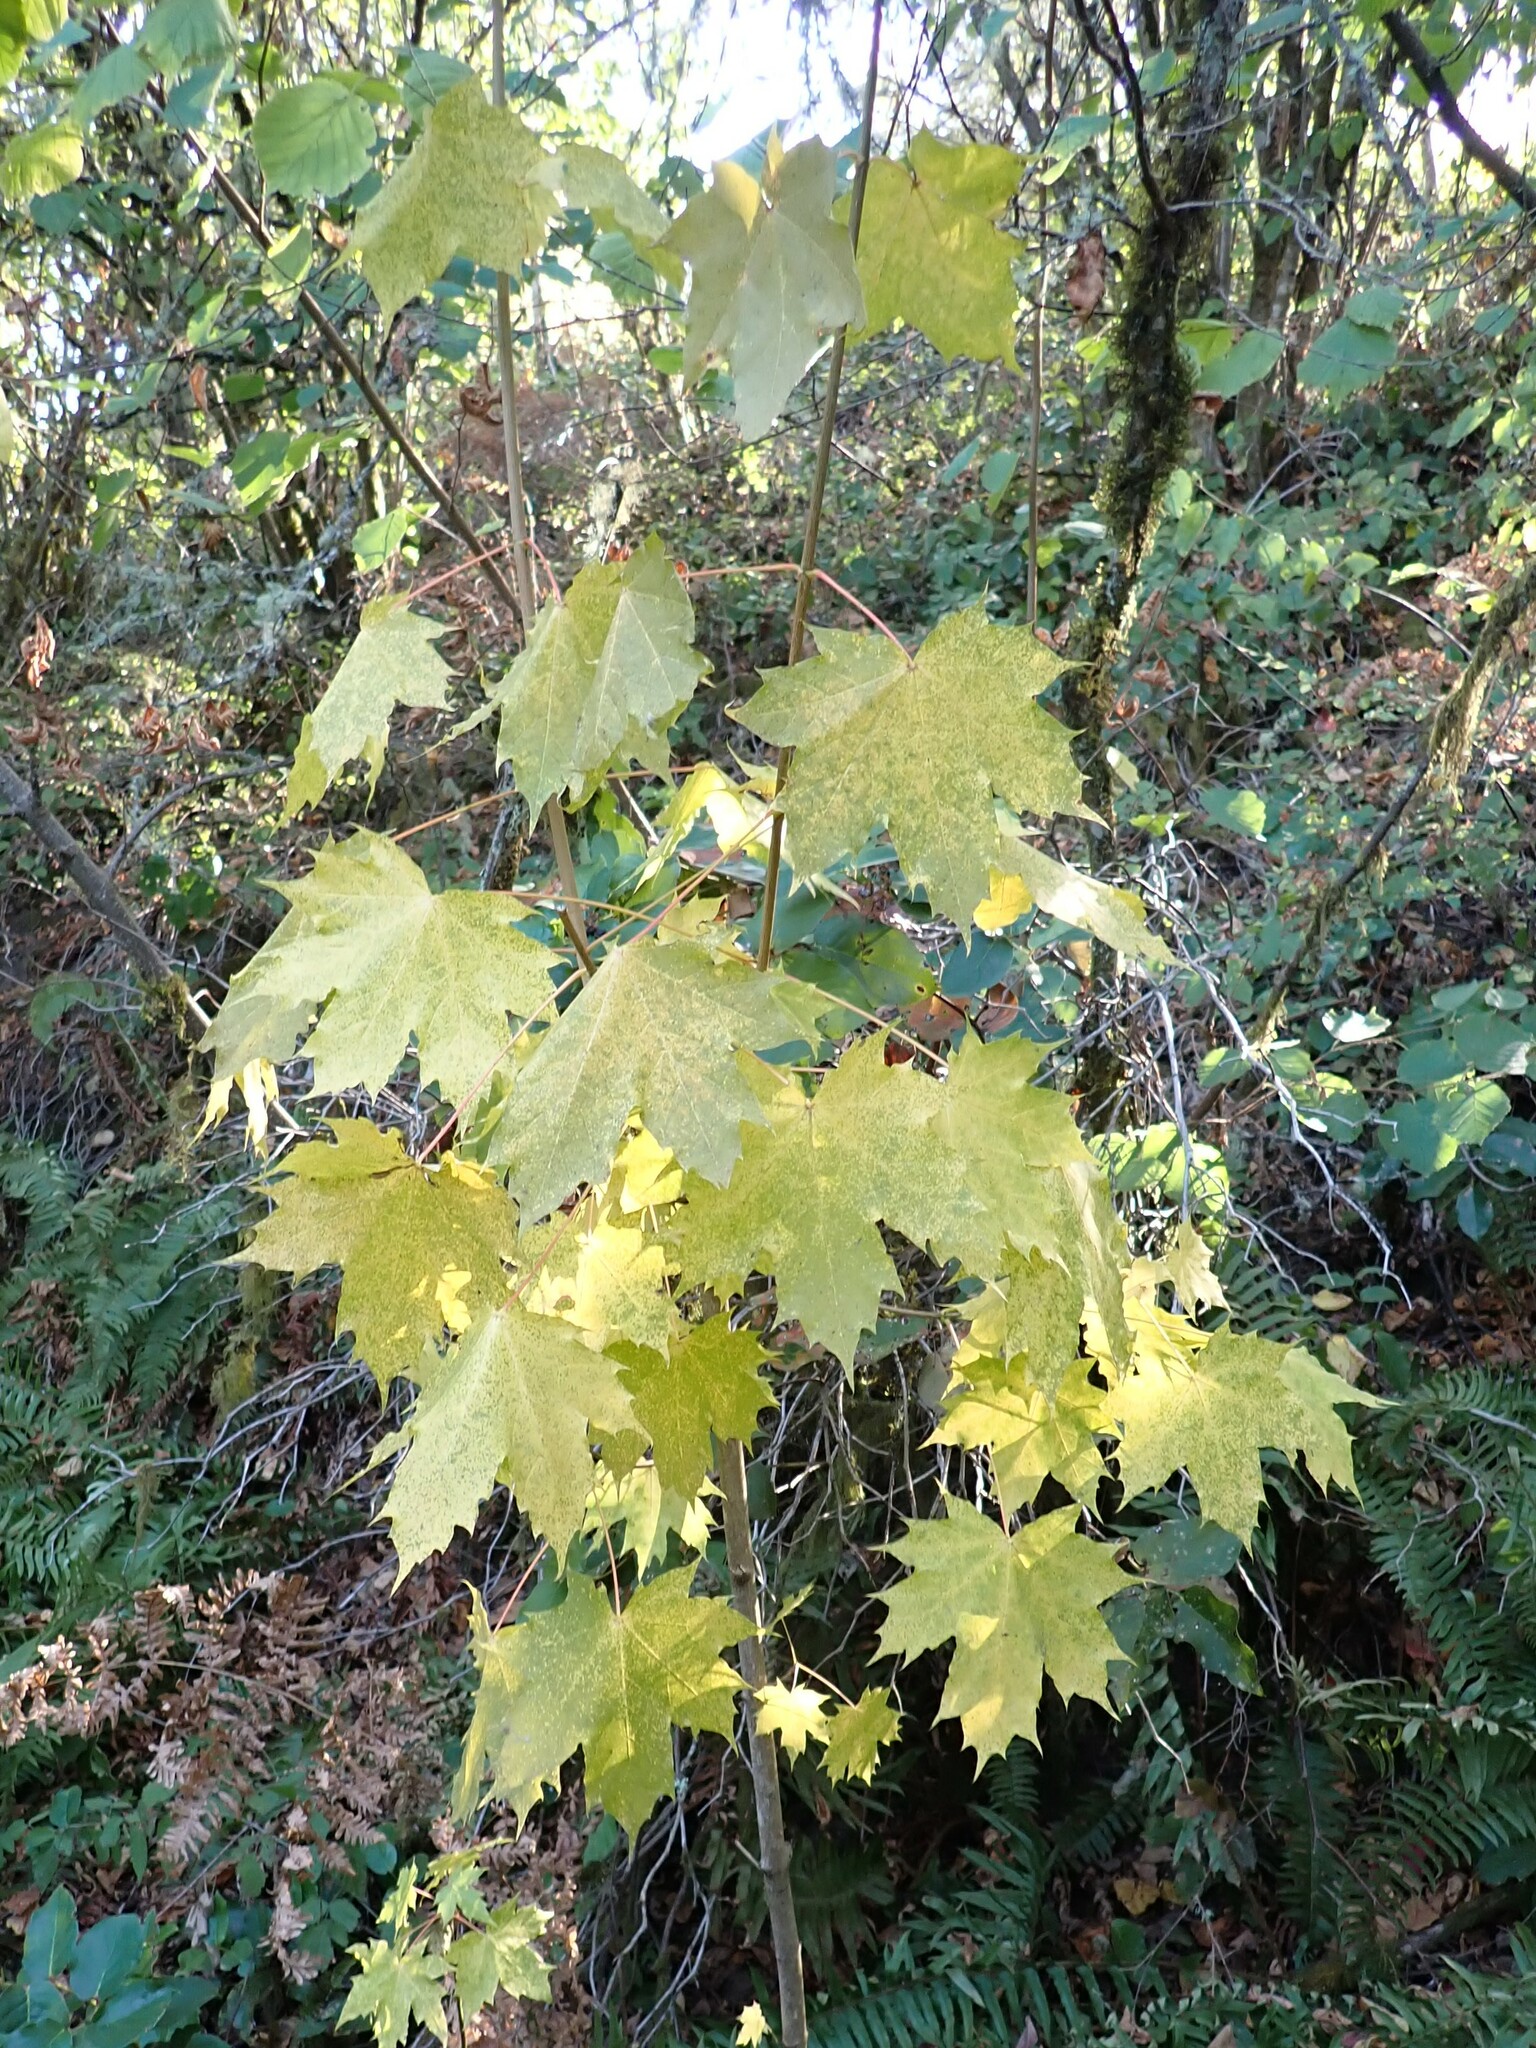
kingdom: Plantae
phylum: Tracheophyta
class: Magnoliopsida
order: Sapindales
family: Sapindaceae
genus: Acer
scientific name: Acer platanoides
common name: Norway maple
